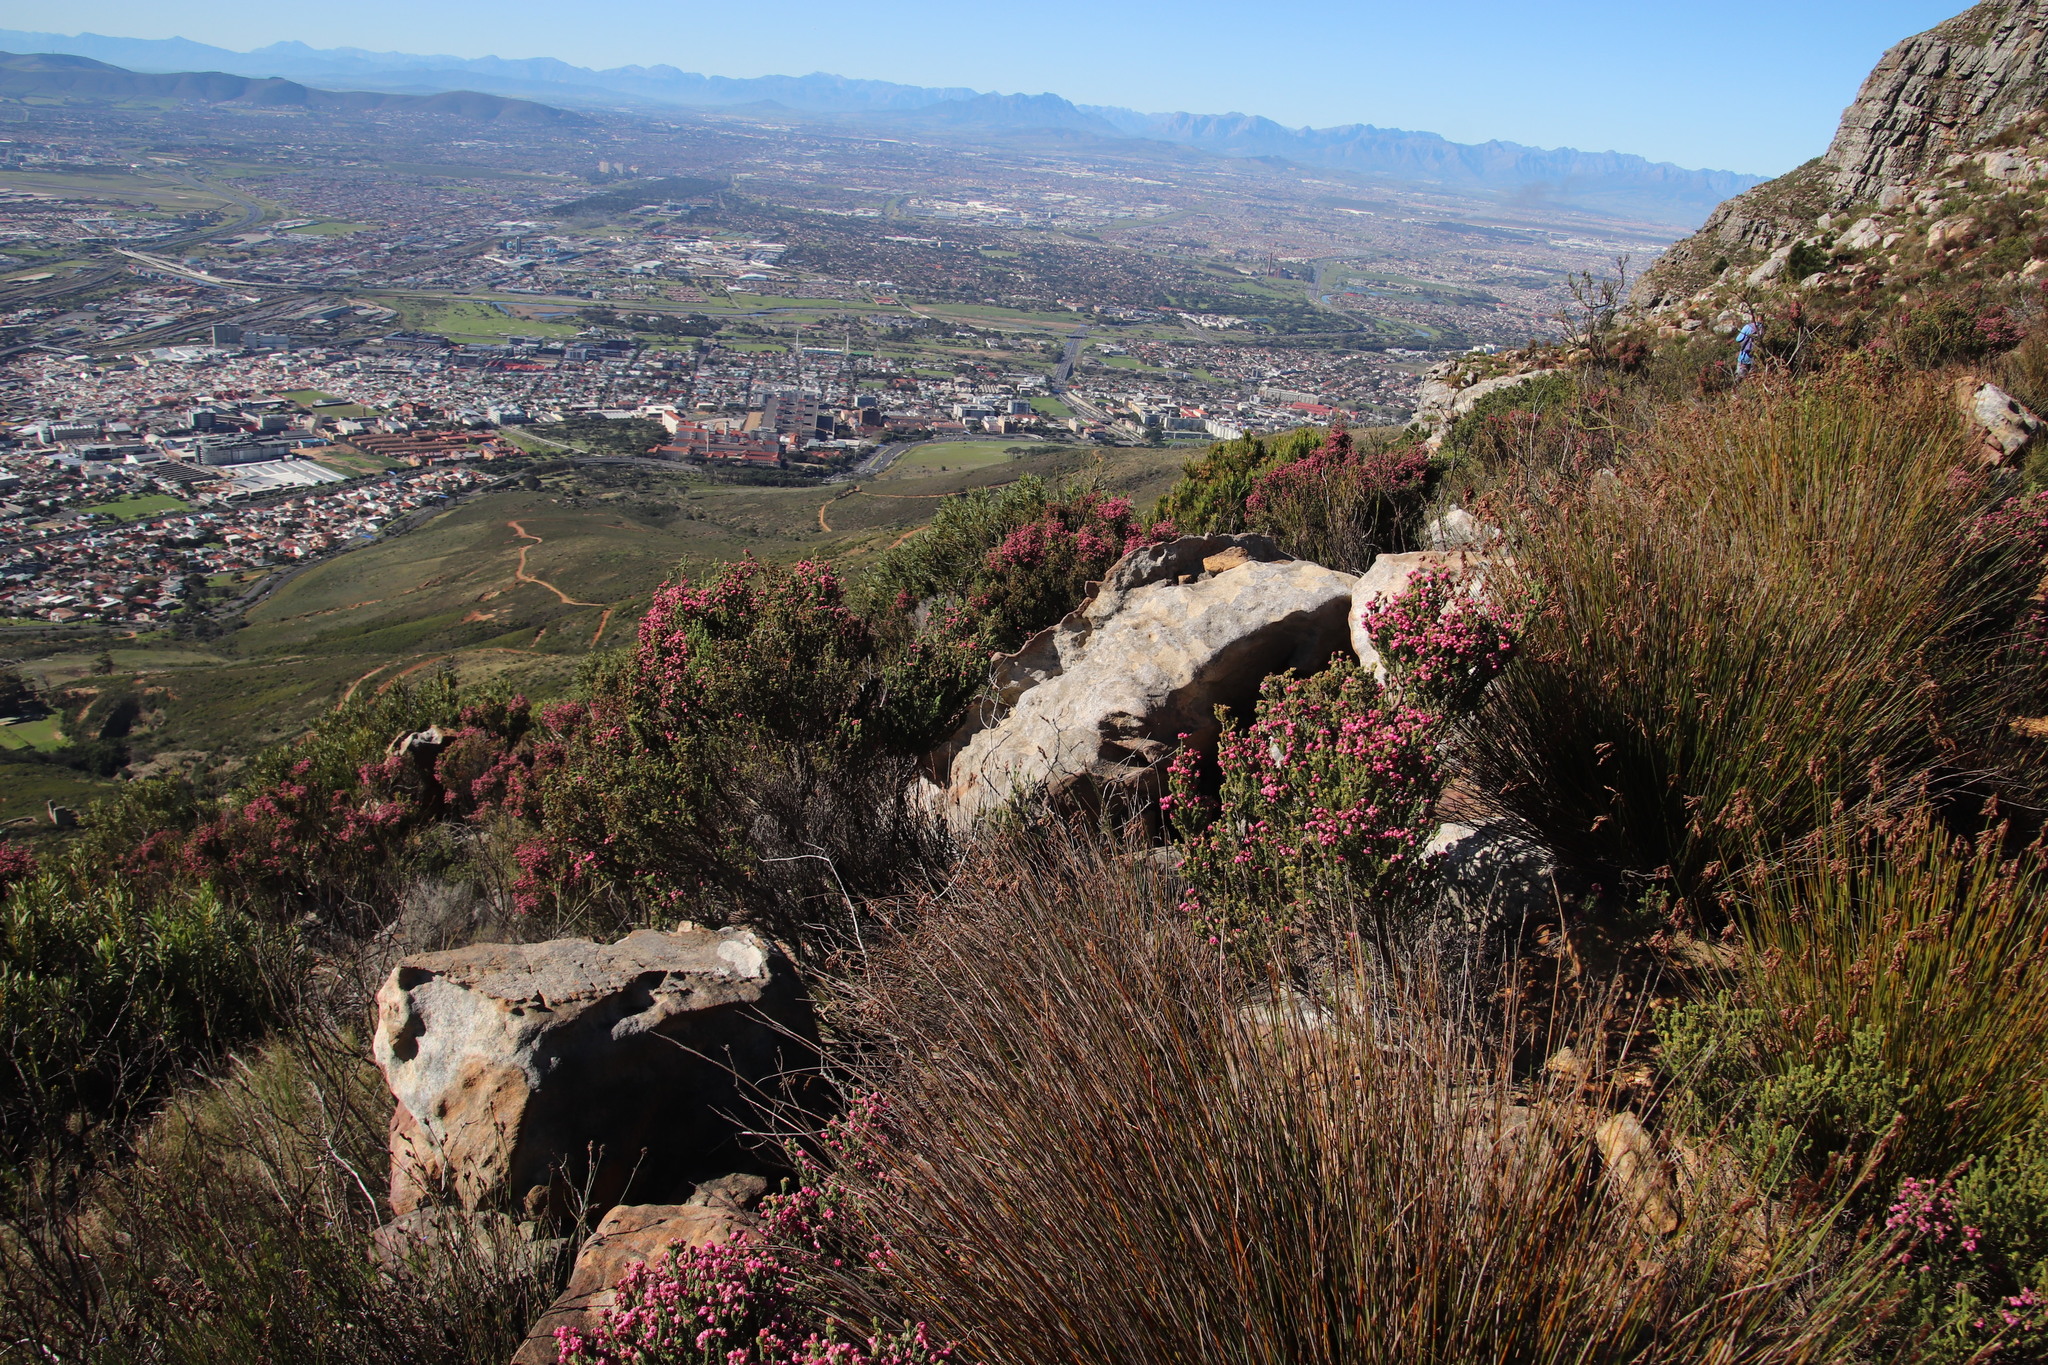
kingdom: Plantae
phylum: Tracheophyta
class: Magnoliopsida
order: Ericales
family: Ericaceae
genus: Erica
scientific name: Erica baccans
